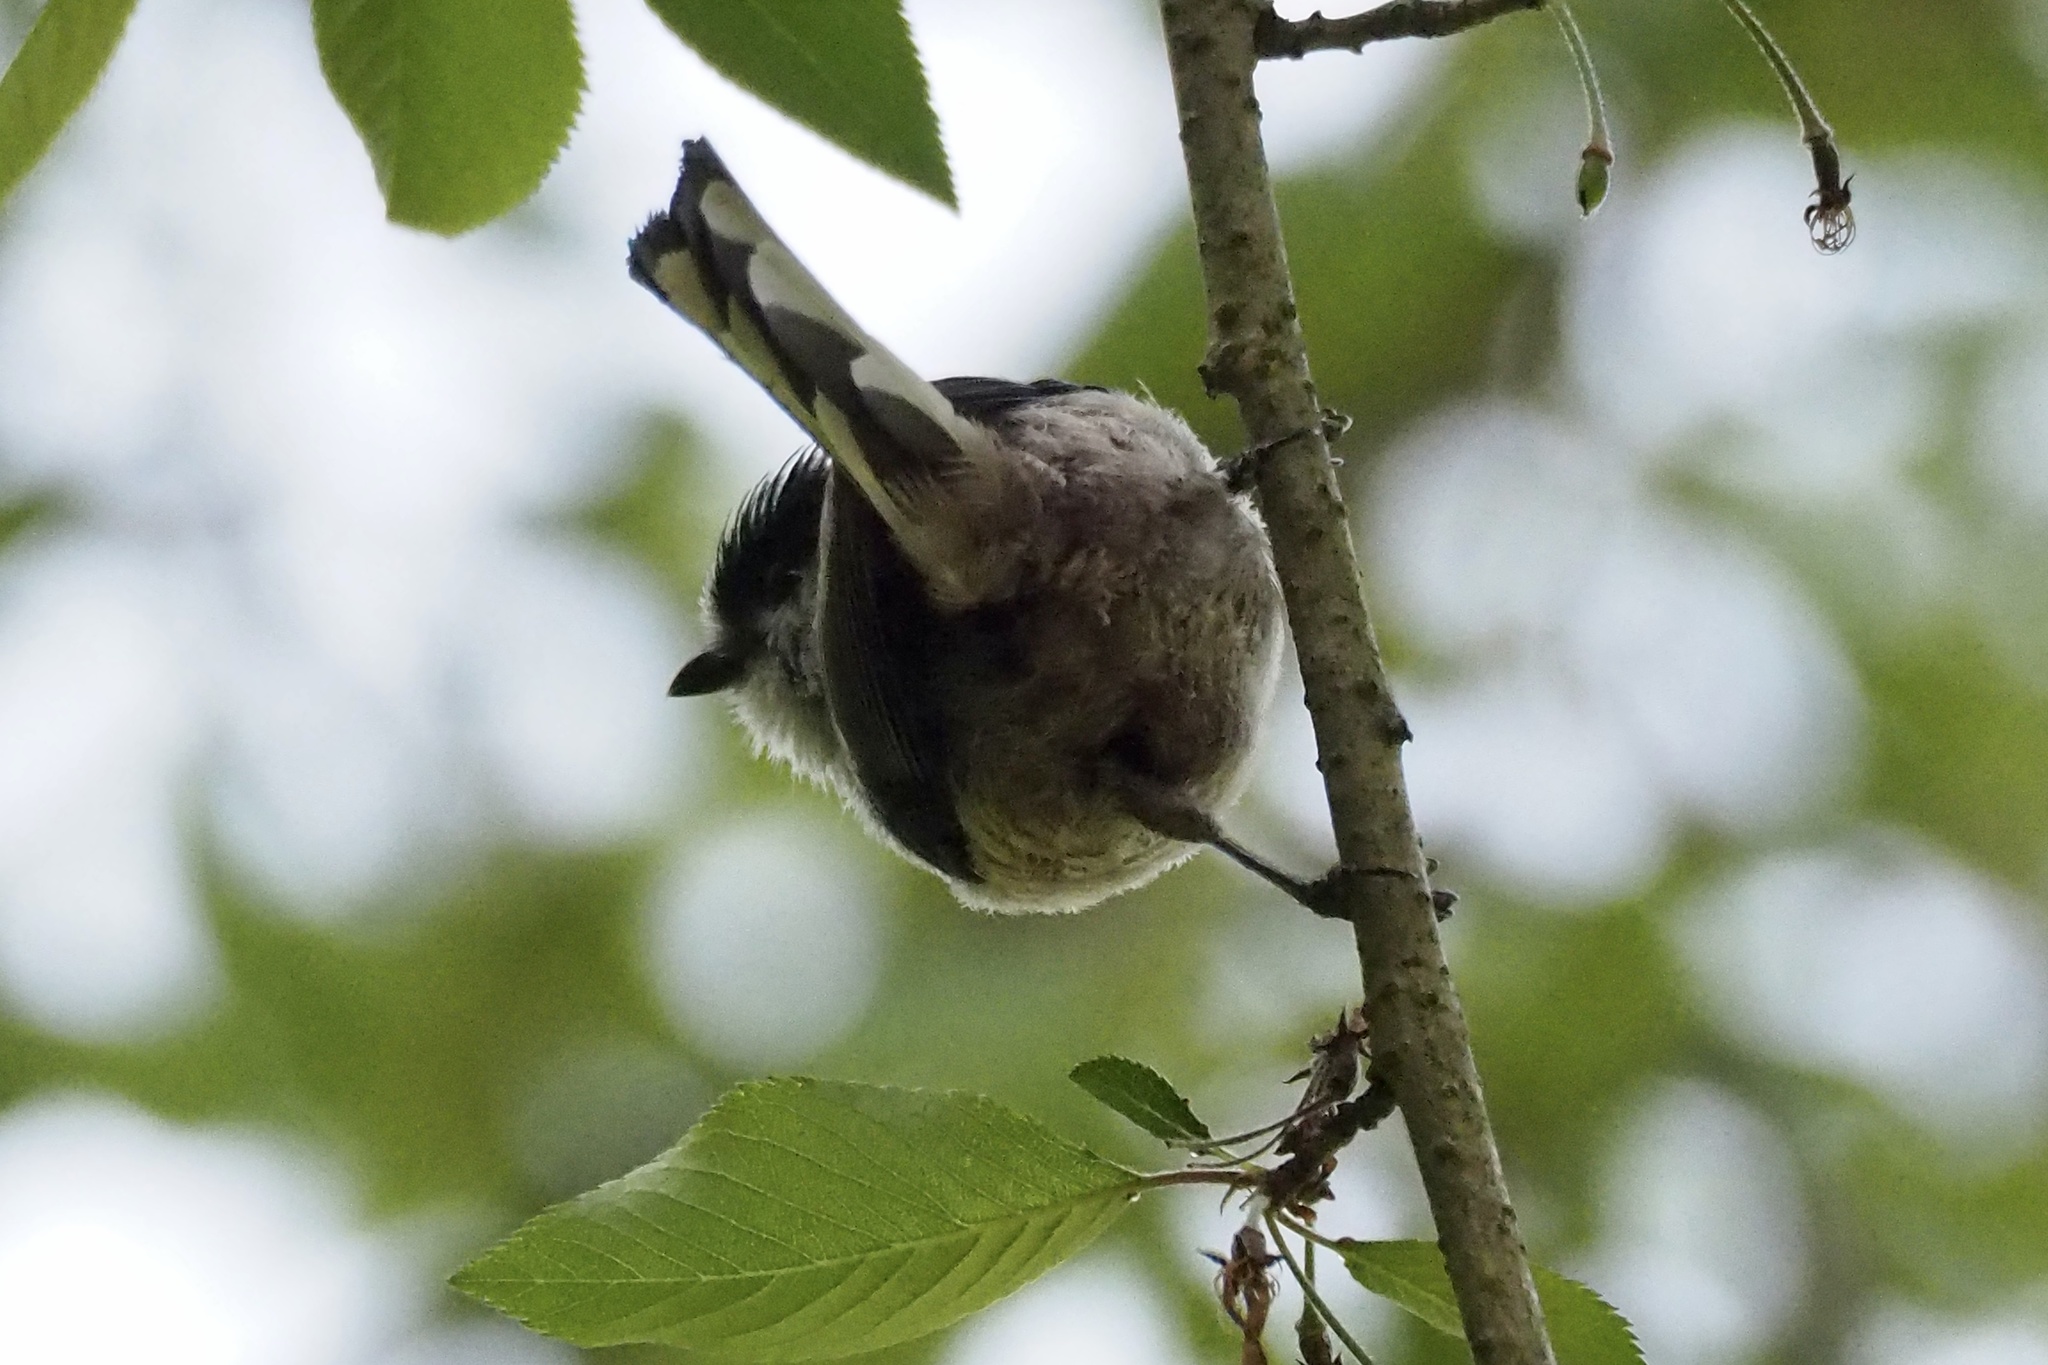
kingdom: Animalia
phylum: Chordata
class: Aves
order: Passeriformes
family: Aegithalidae
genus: Aegithalos
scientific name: Aegithalos caudatus
